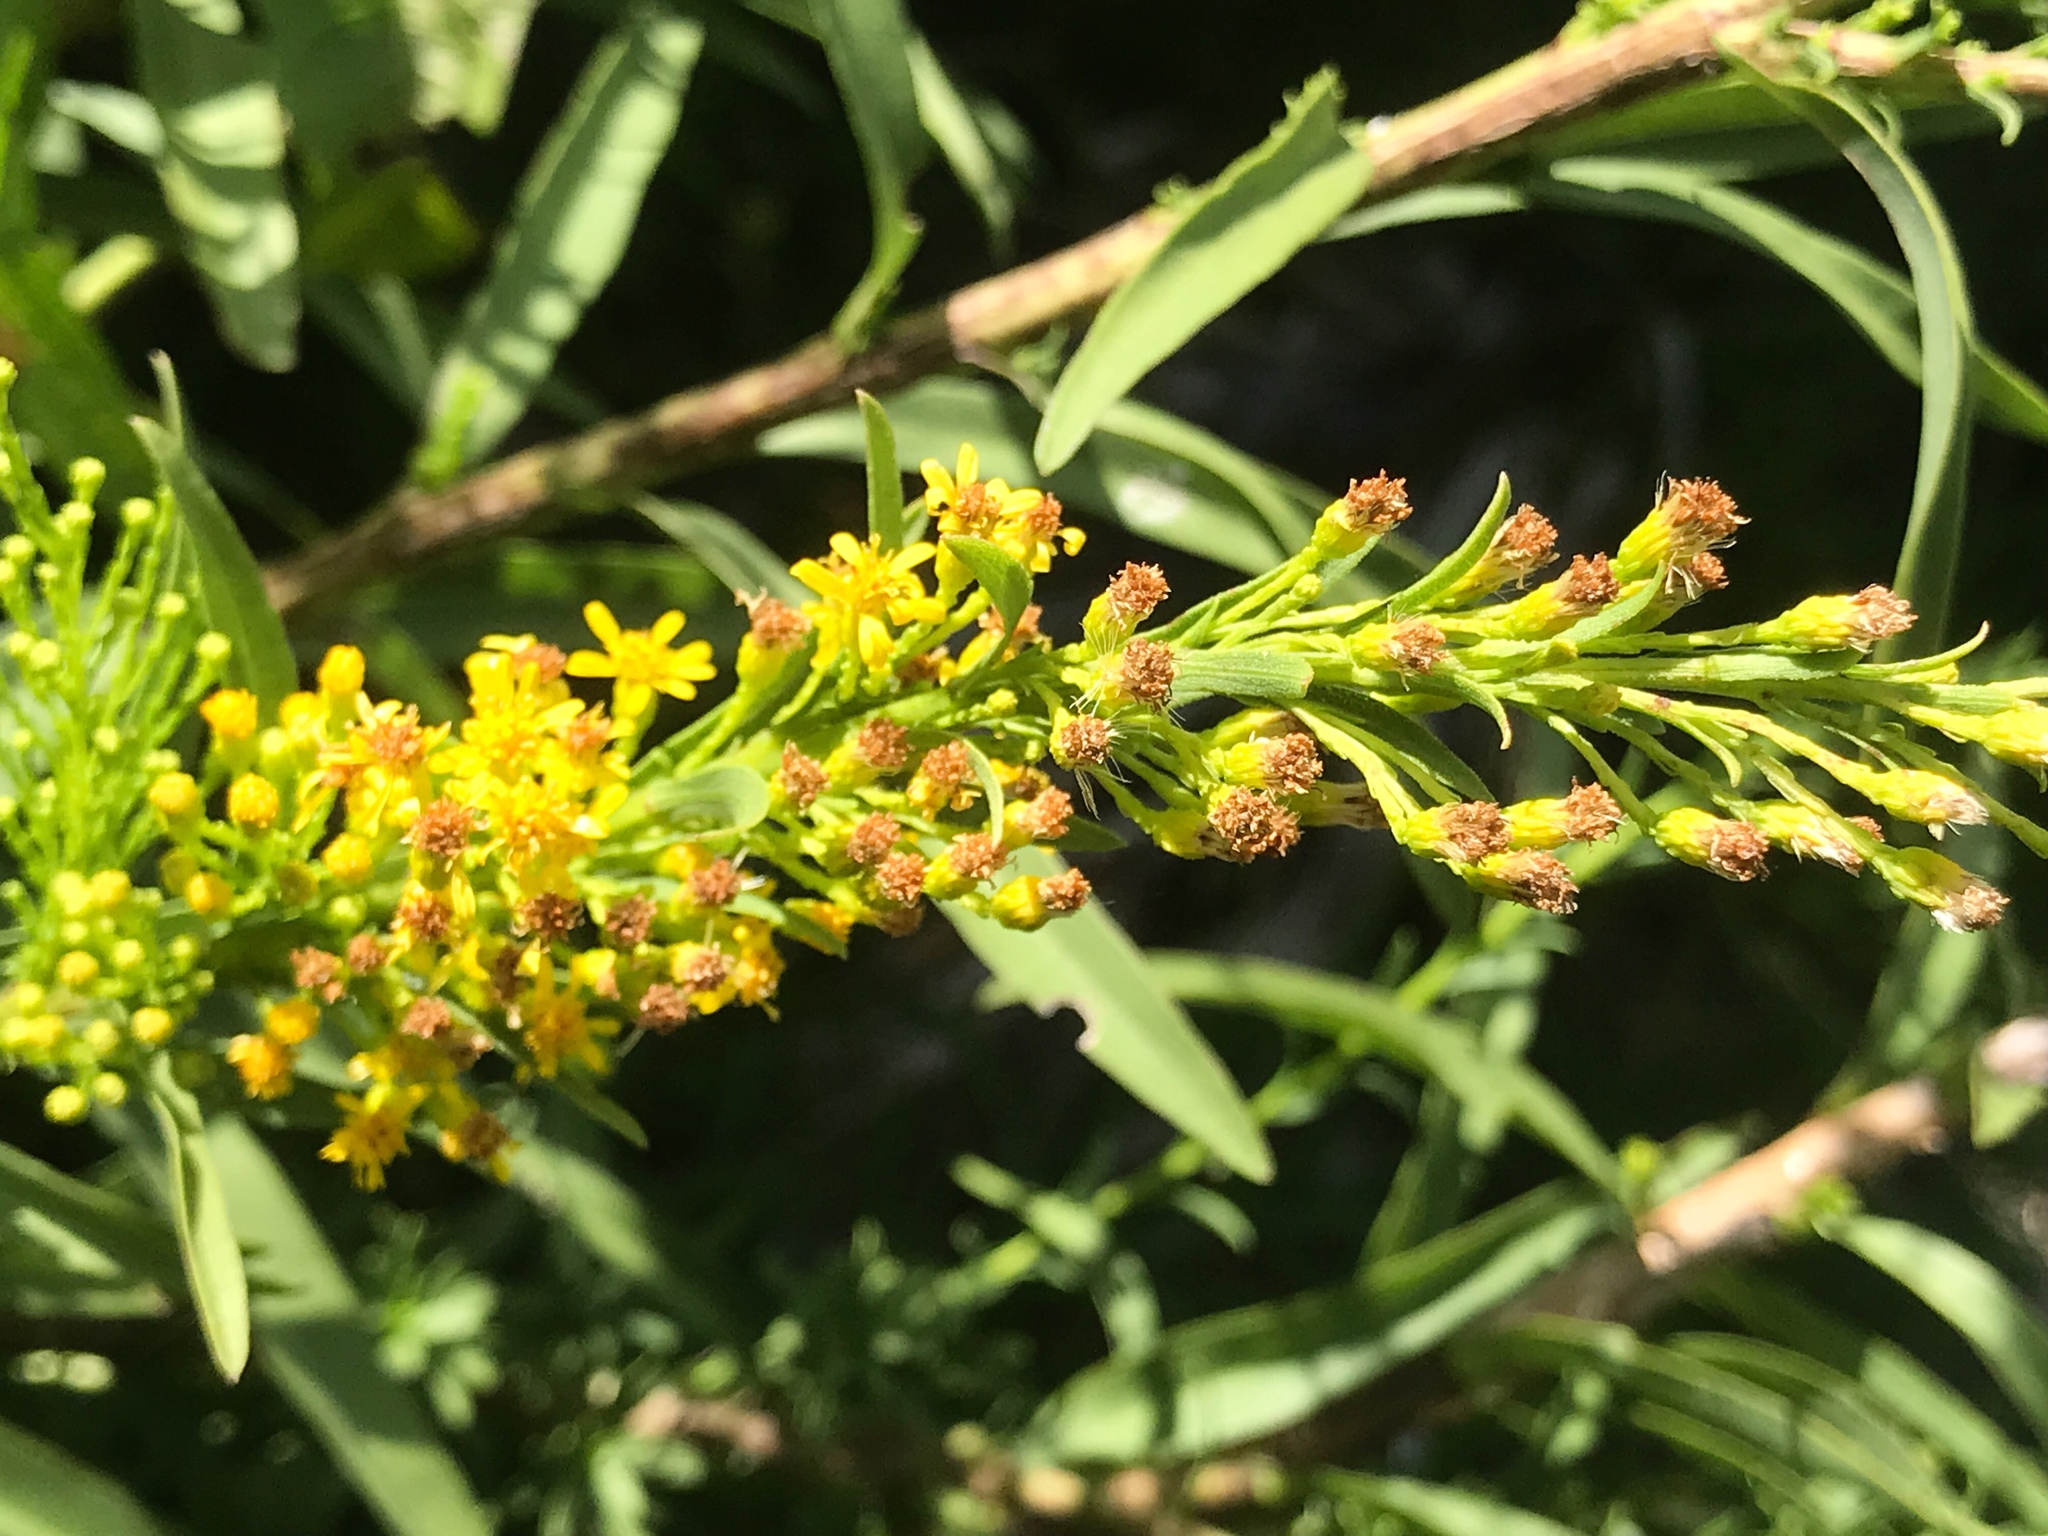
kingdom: Plantae
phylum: Tracheophyta
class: Magnoliopsida
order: Asterales
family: Asteraceae
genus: Solidago
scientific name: Solidago mexicana
